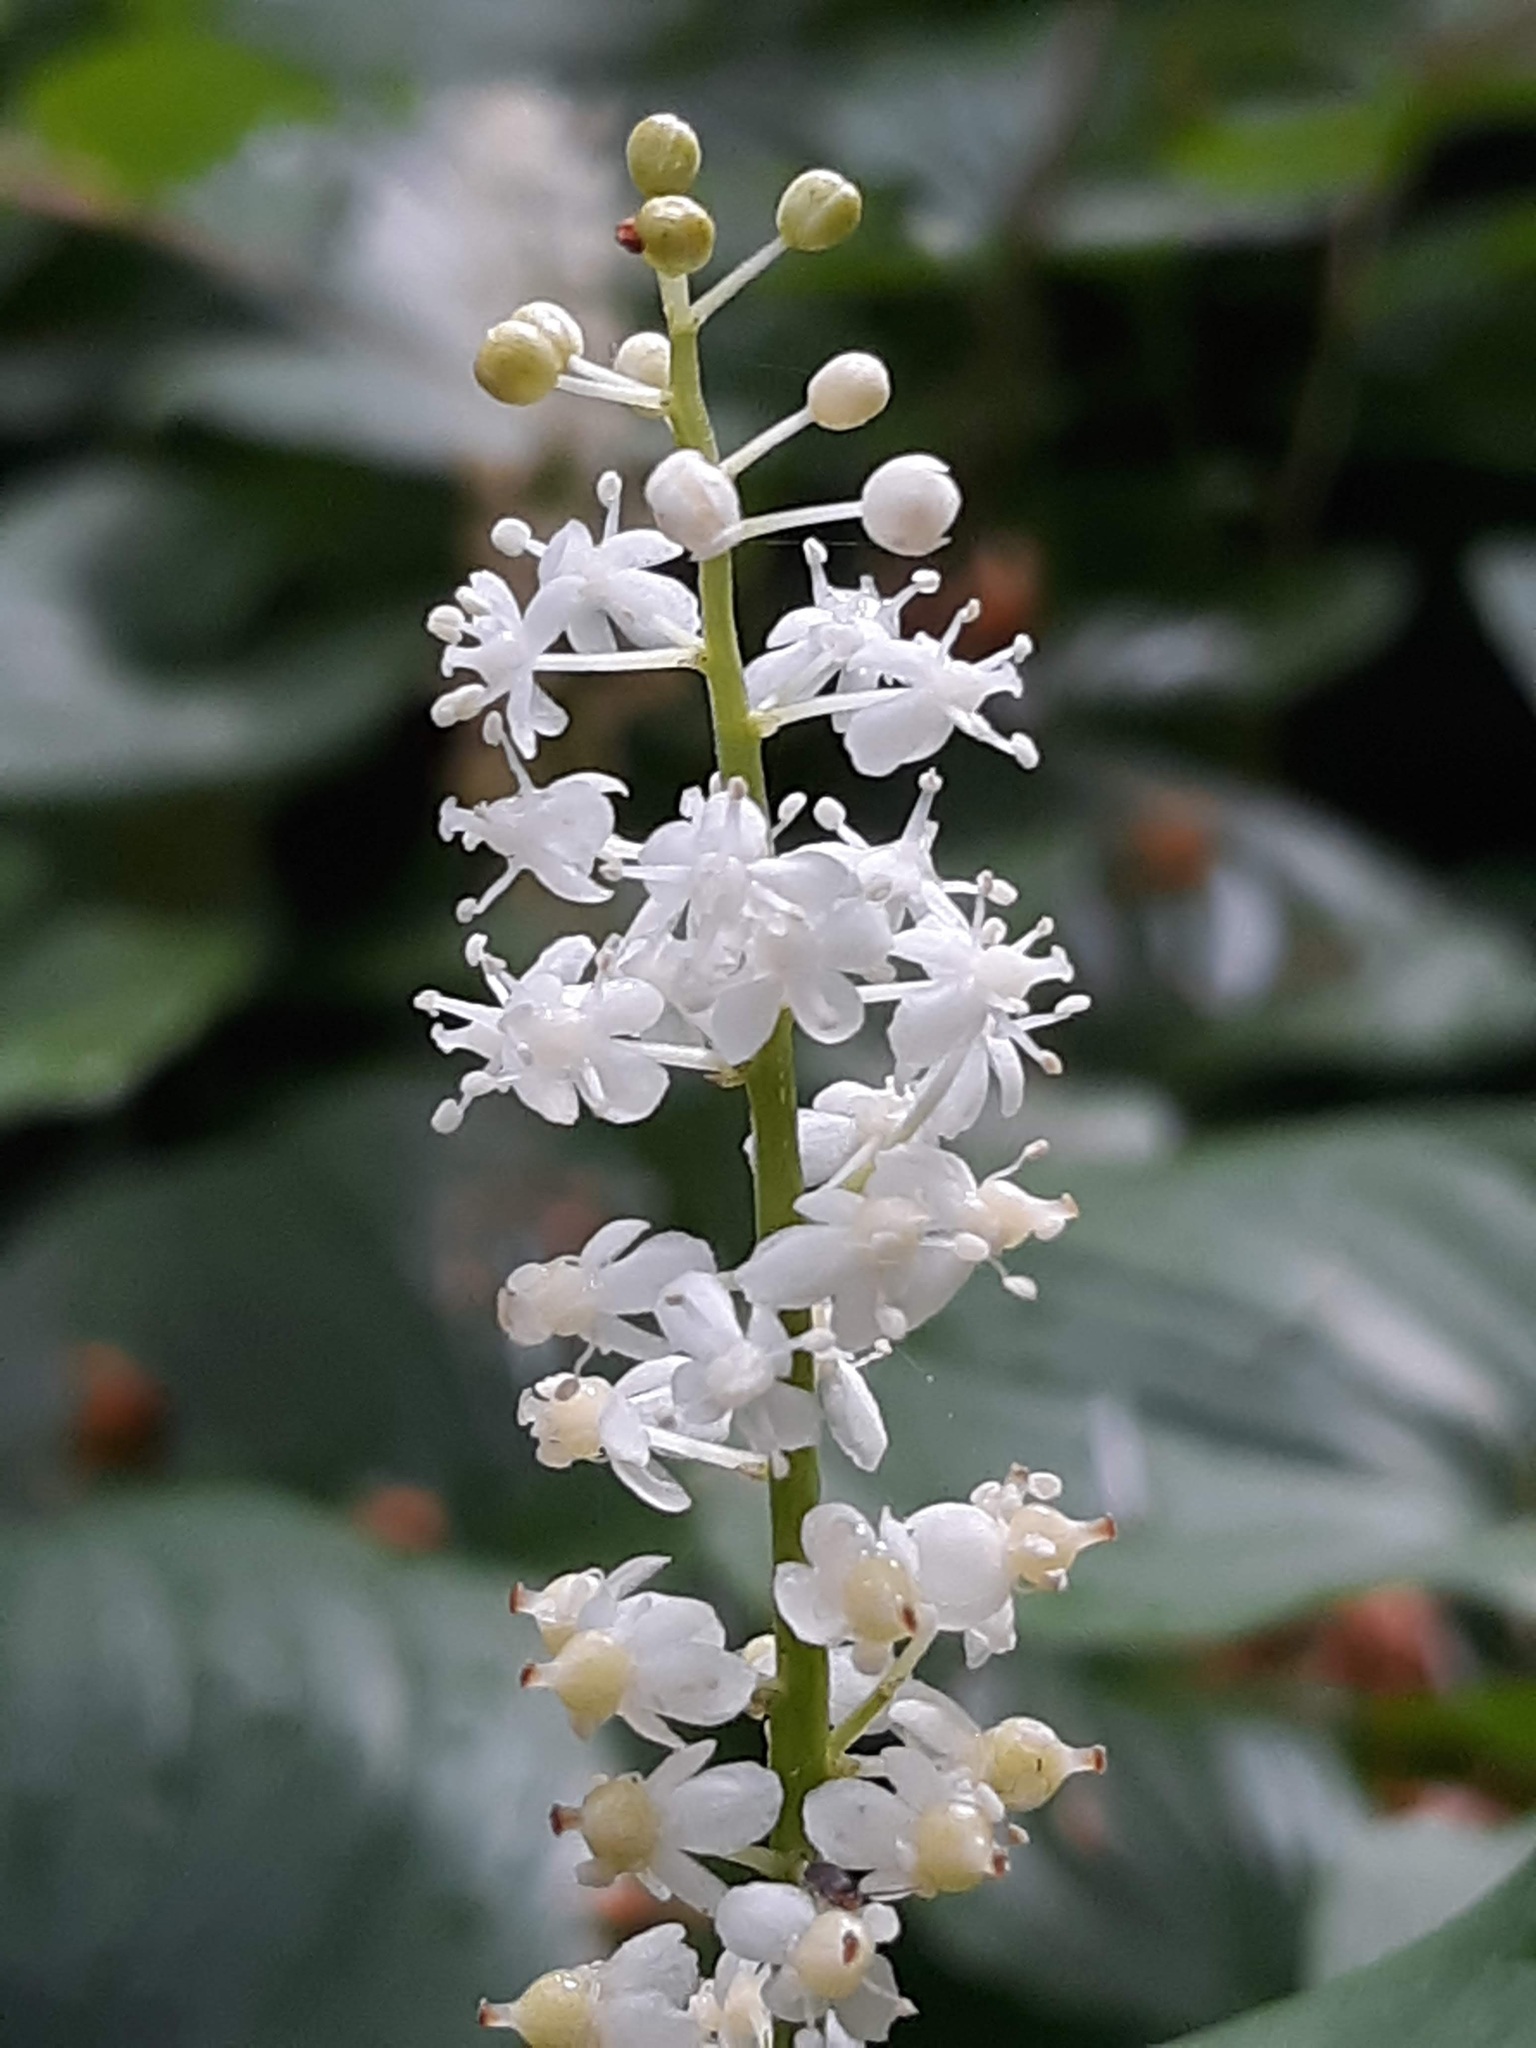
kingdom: Plantae
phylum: Tracheophyta
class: Liliopsida
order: Asparagales
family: Asparagaceae
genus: Maianthemum
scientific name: Maianthemum dilatatum
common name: False lily-of-the-valley
